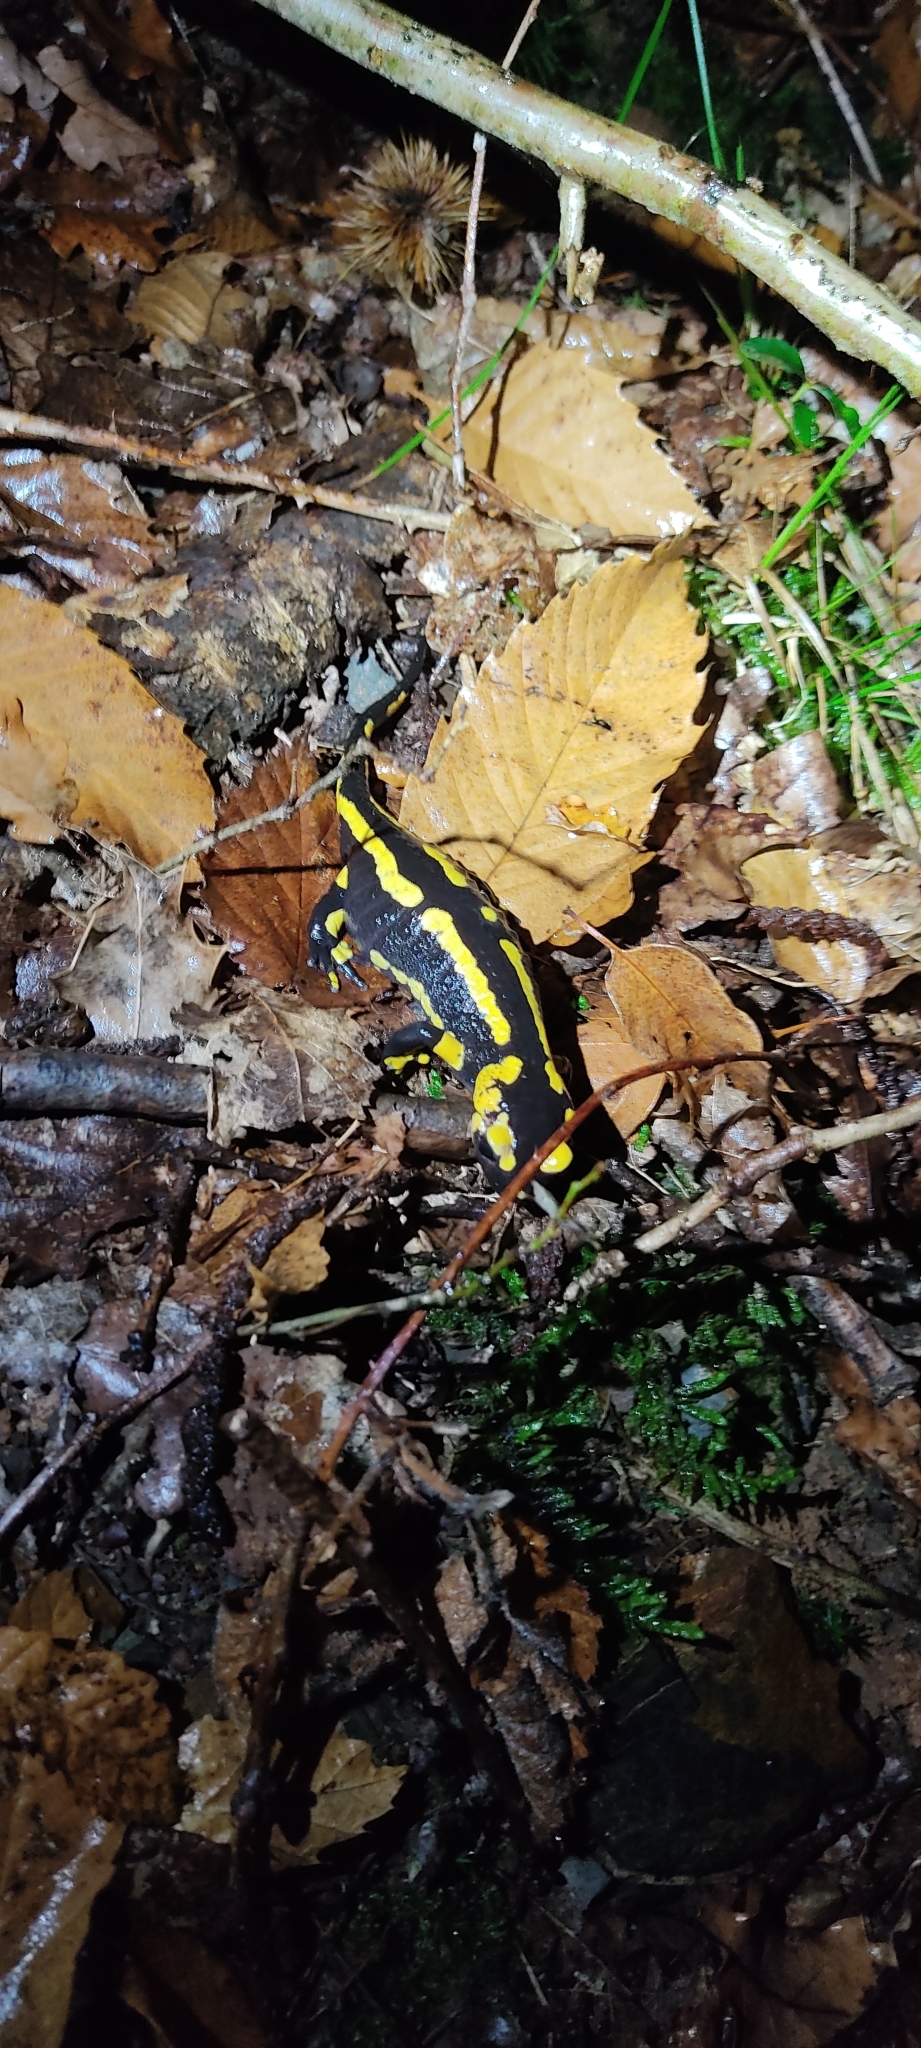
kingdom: Animalia
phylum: Chordata
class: Amphibia
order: Caudata
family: Salamandridae
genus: Salamandra
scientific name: Salamandra salamandra
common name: Fire salamander
